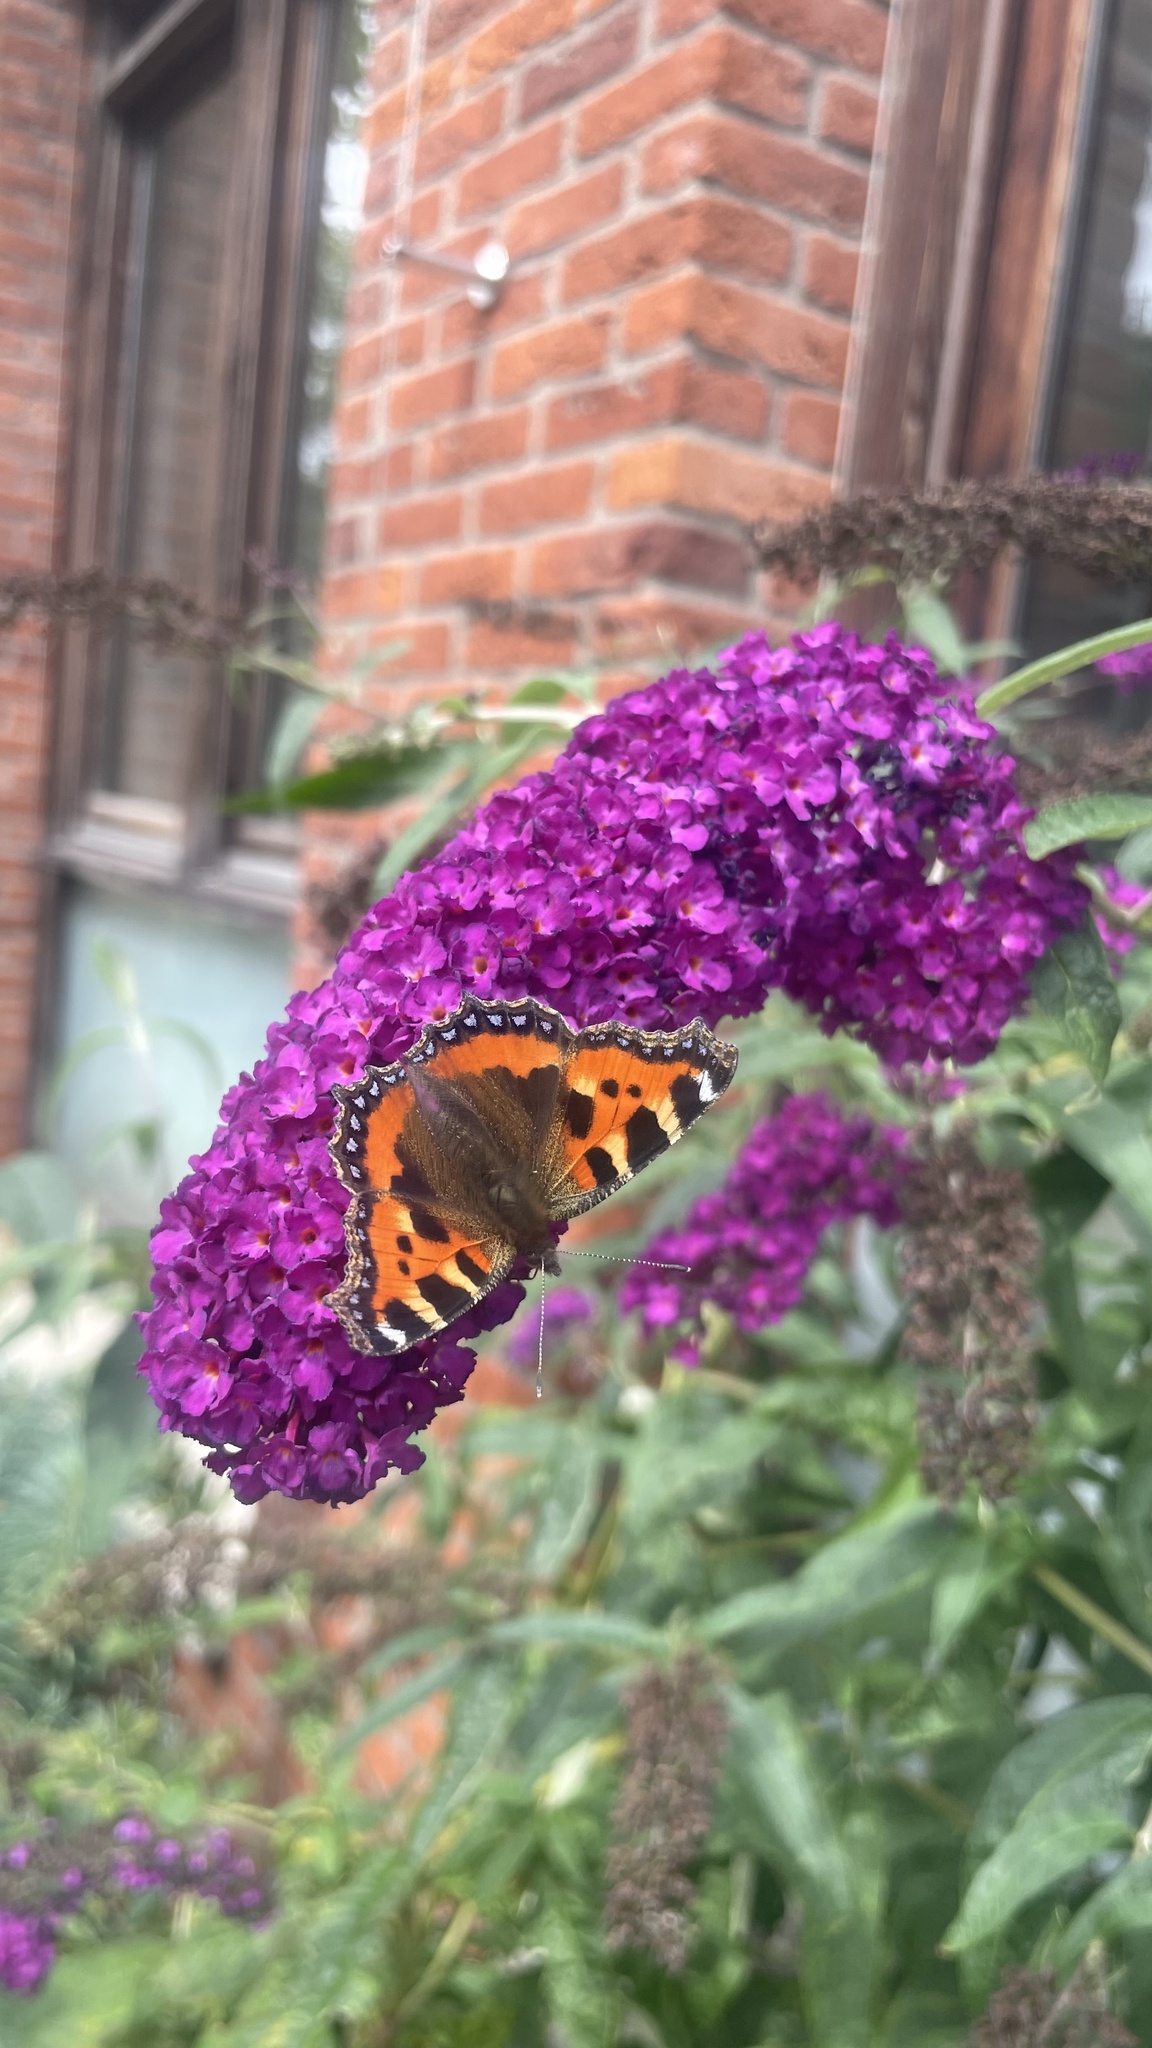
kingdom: Animalia
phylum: Arthropoda
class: Insecta
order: Lepidoptera
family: Nymphalidae
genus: Aglais
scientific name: Aglais urticae
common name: Small tortoiseshell
